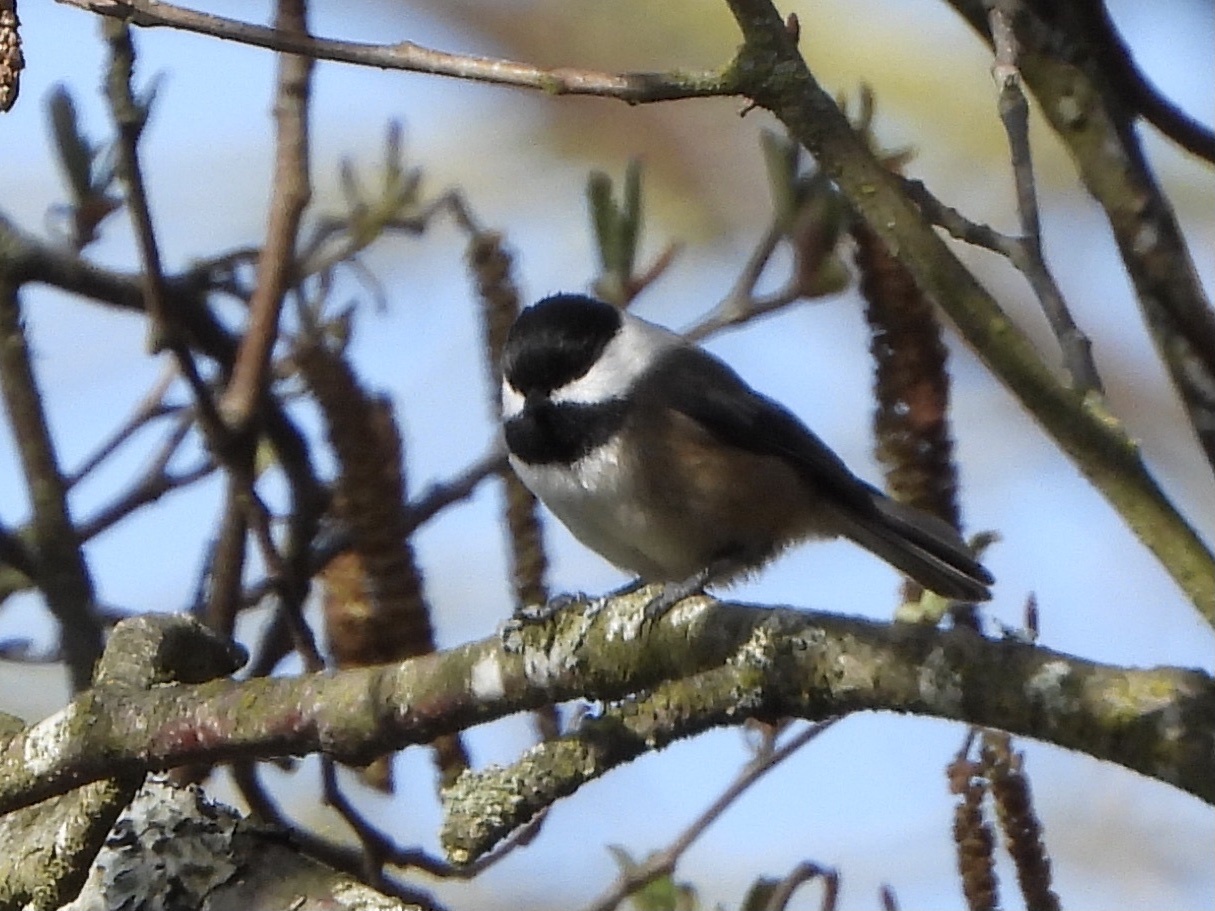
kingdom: Animalia
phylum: Chordata
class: Aves
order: Passeriformes
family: Paridae
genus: Poecile
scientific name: Poecile atricapillus
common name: Black-capped chickadee
